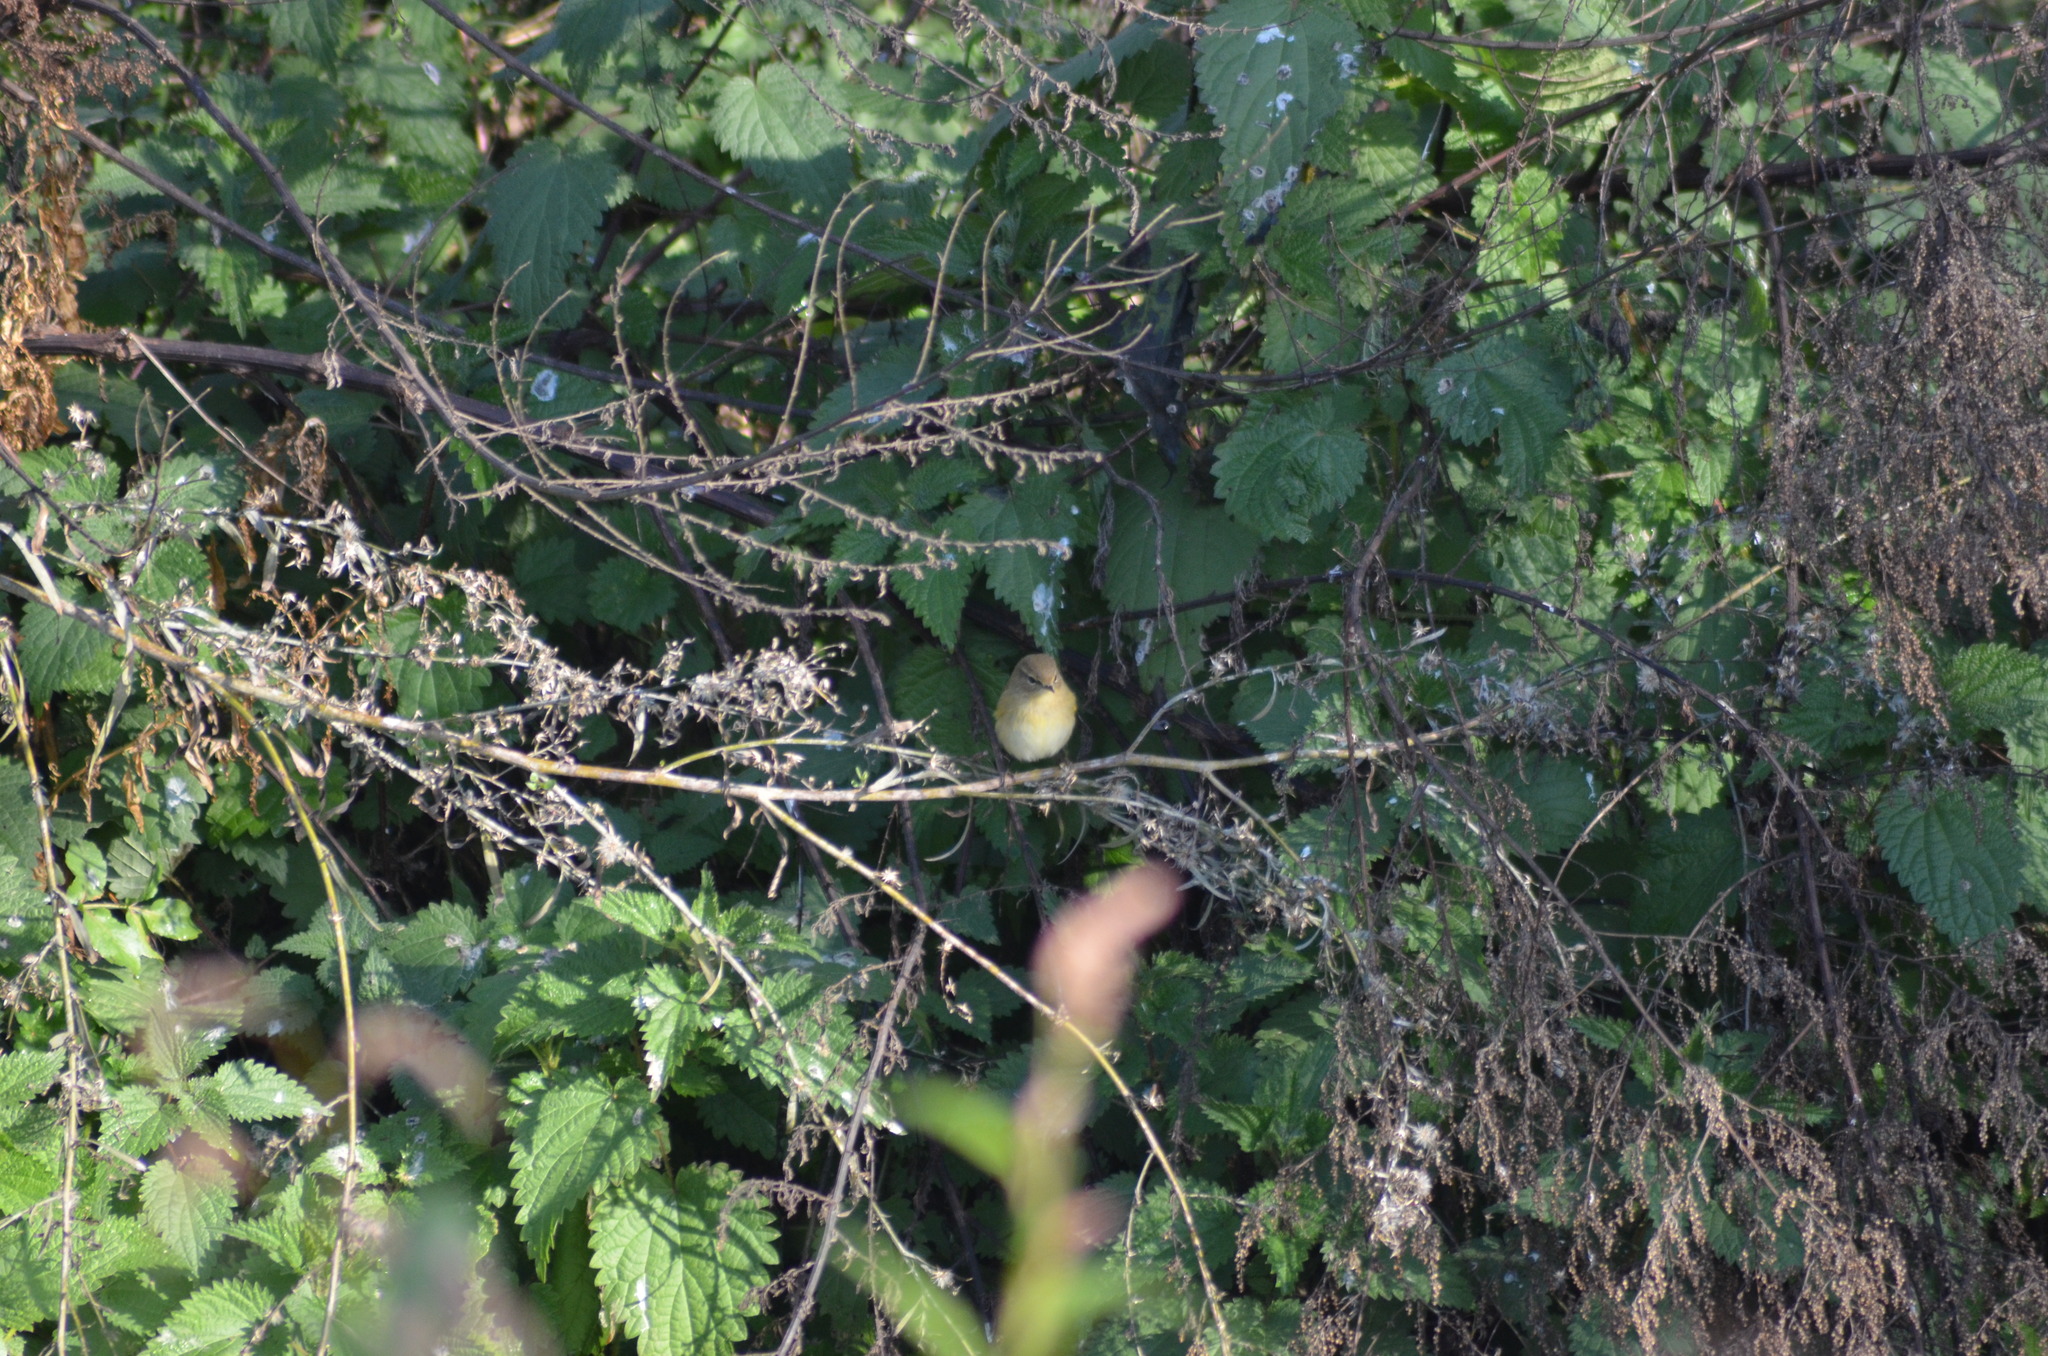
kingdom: Animalia
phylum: Chordata
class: Aves
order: Passeriformes
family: Phylloscopidae
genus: Phylloscopus
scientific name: Phylloscopus collybita
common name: Common chiffchaff
